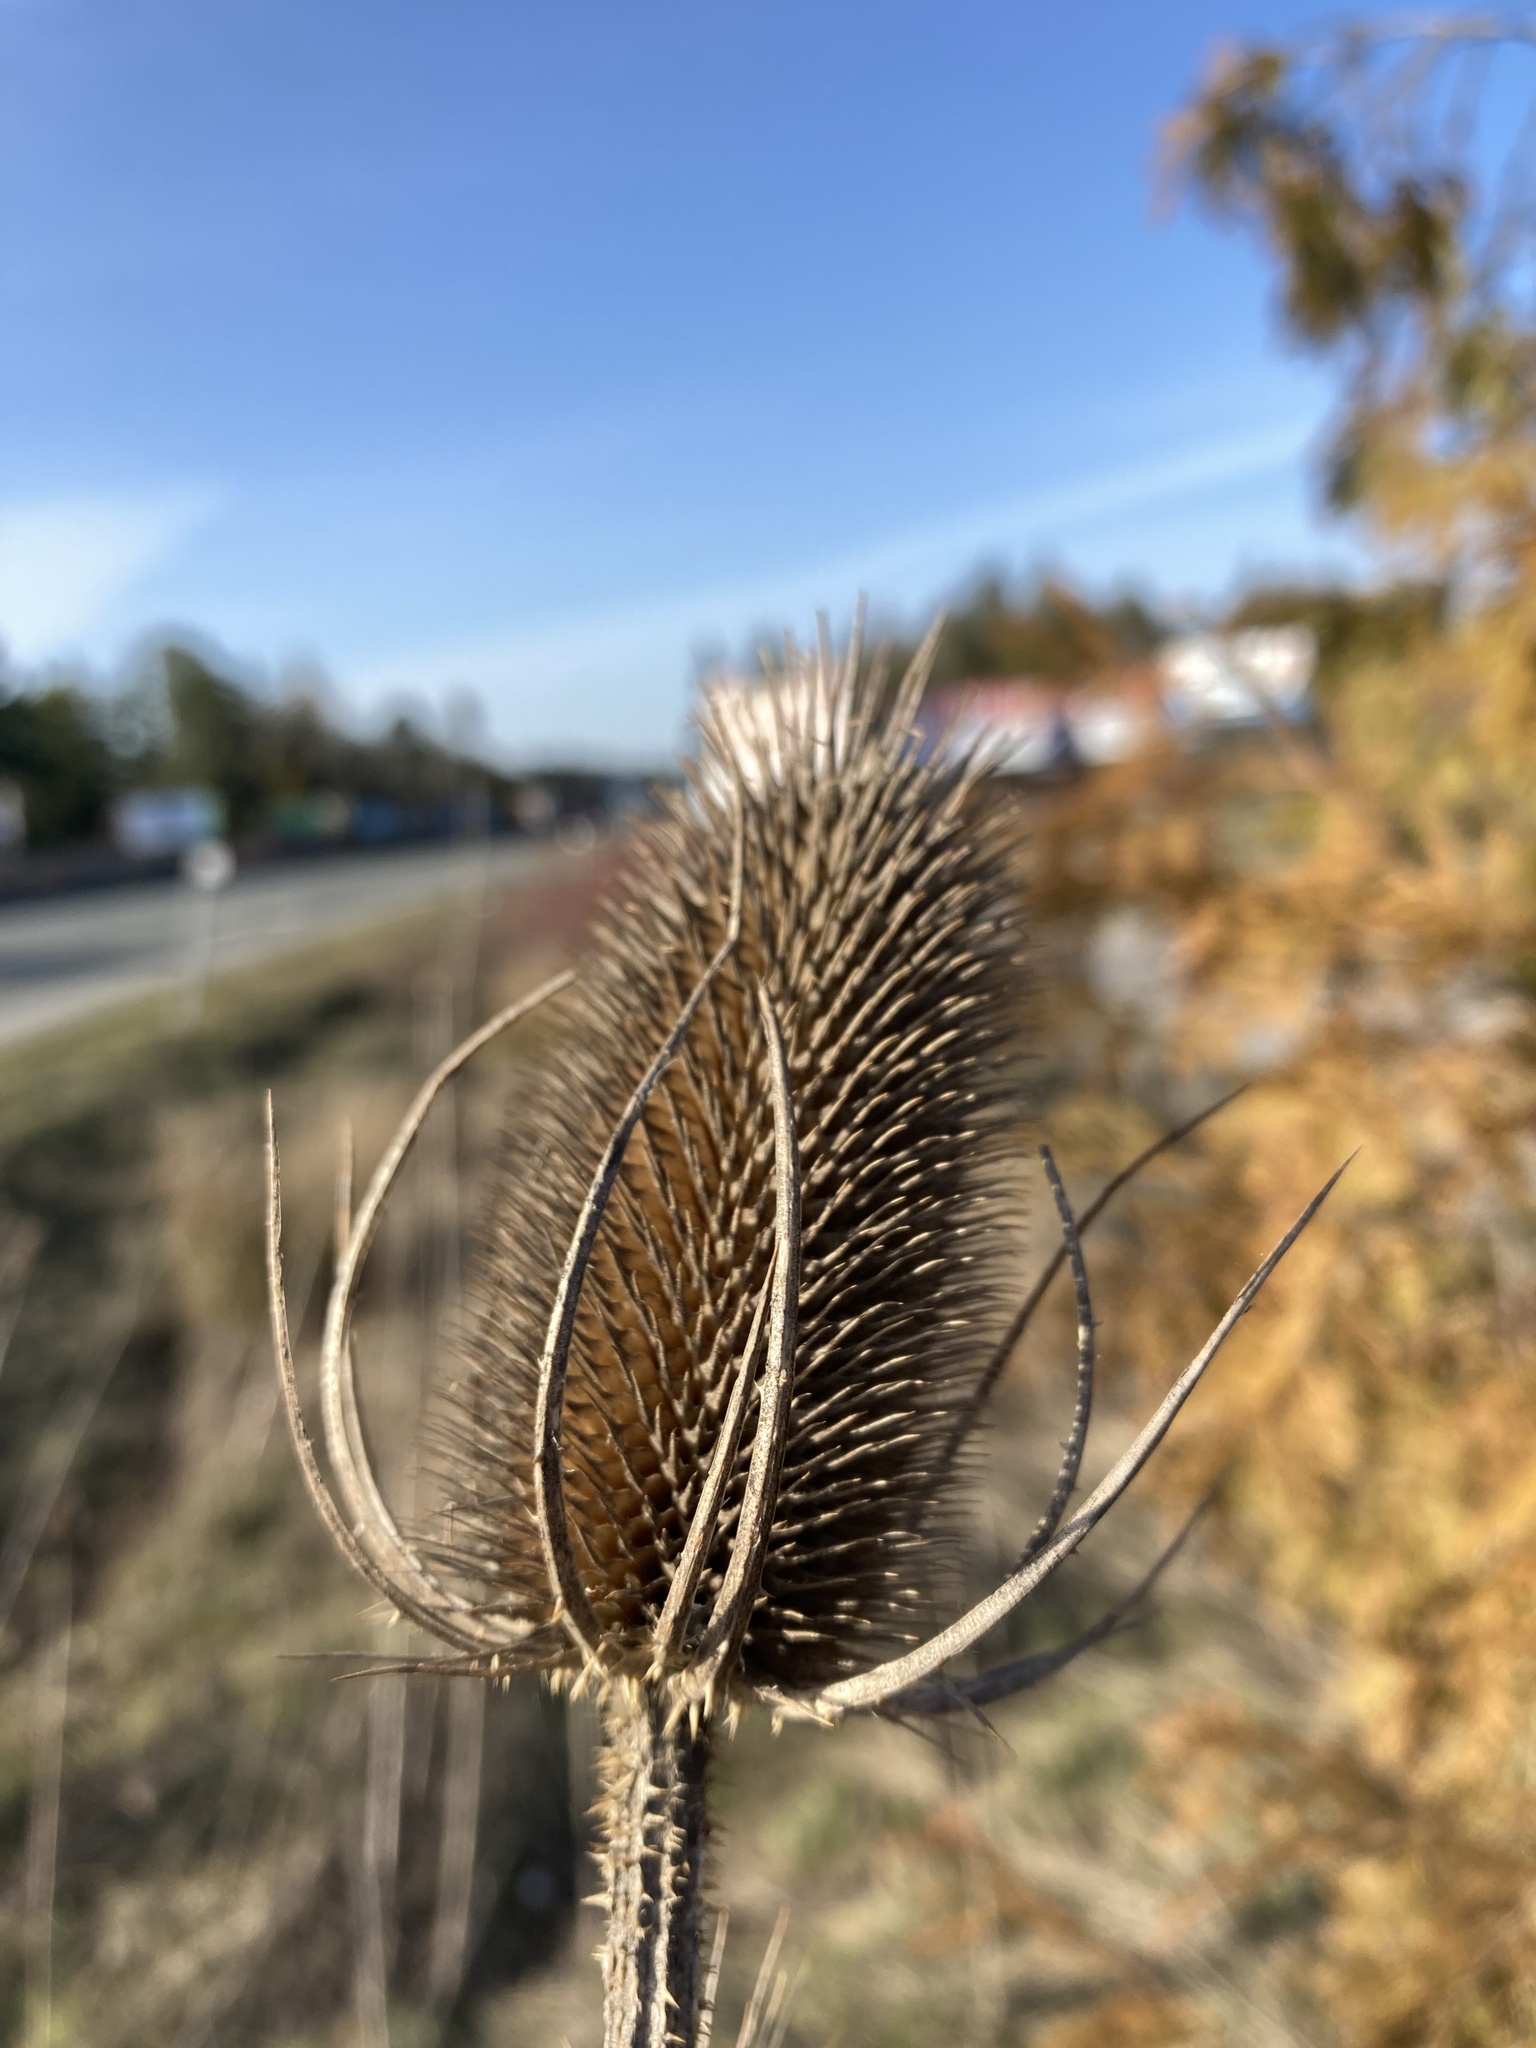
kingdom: Plantae
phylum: Tracheophyta
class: Magnoliopsida
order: Dipsacales
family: Caprifoliaceae
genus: Dipsacus
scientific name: Dipsacus fullonum
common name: Teasel
